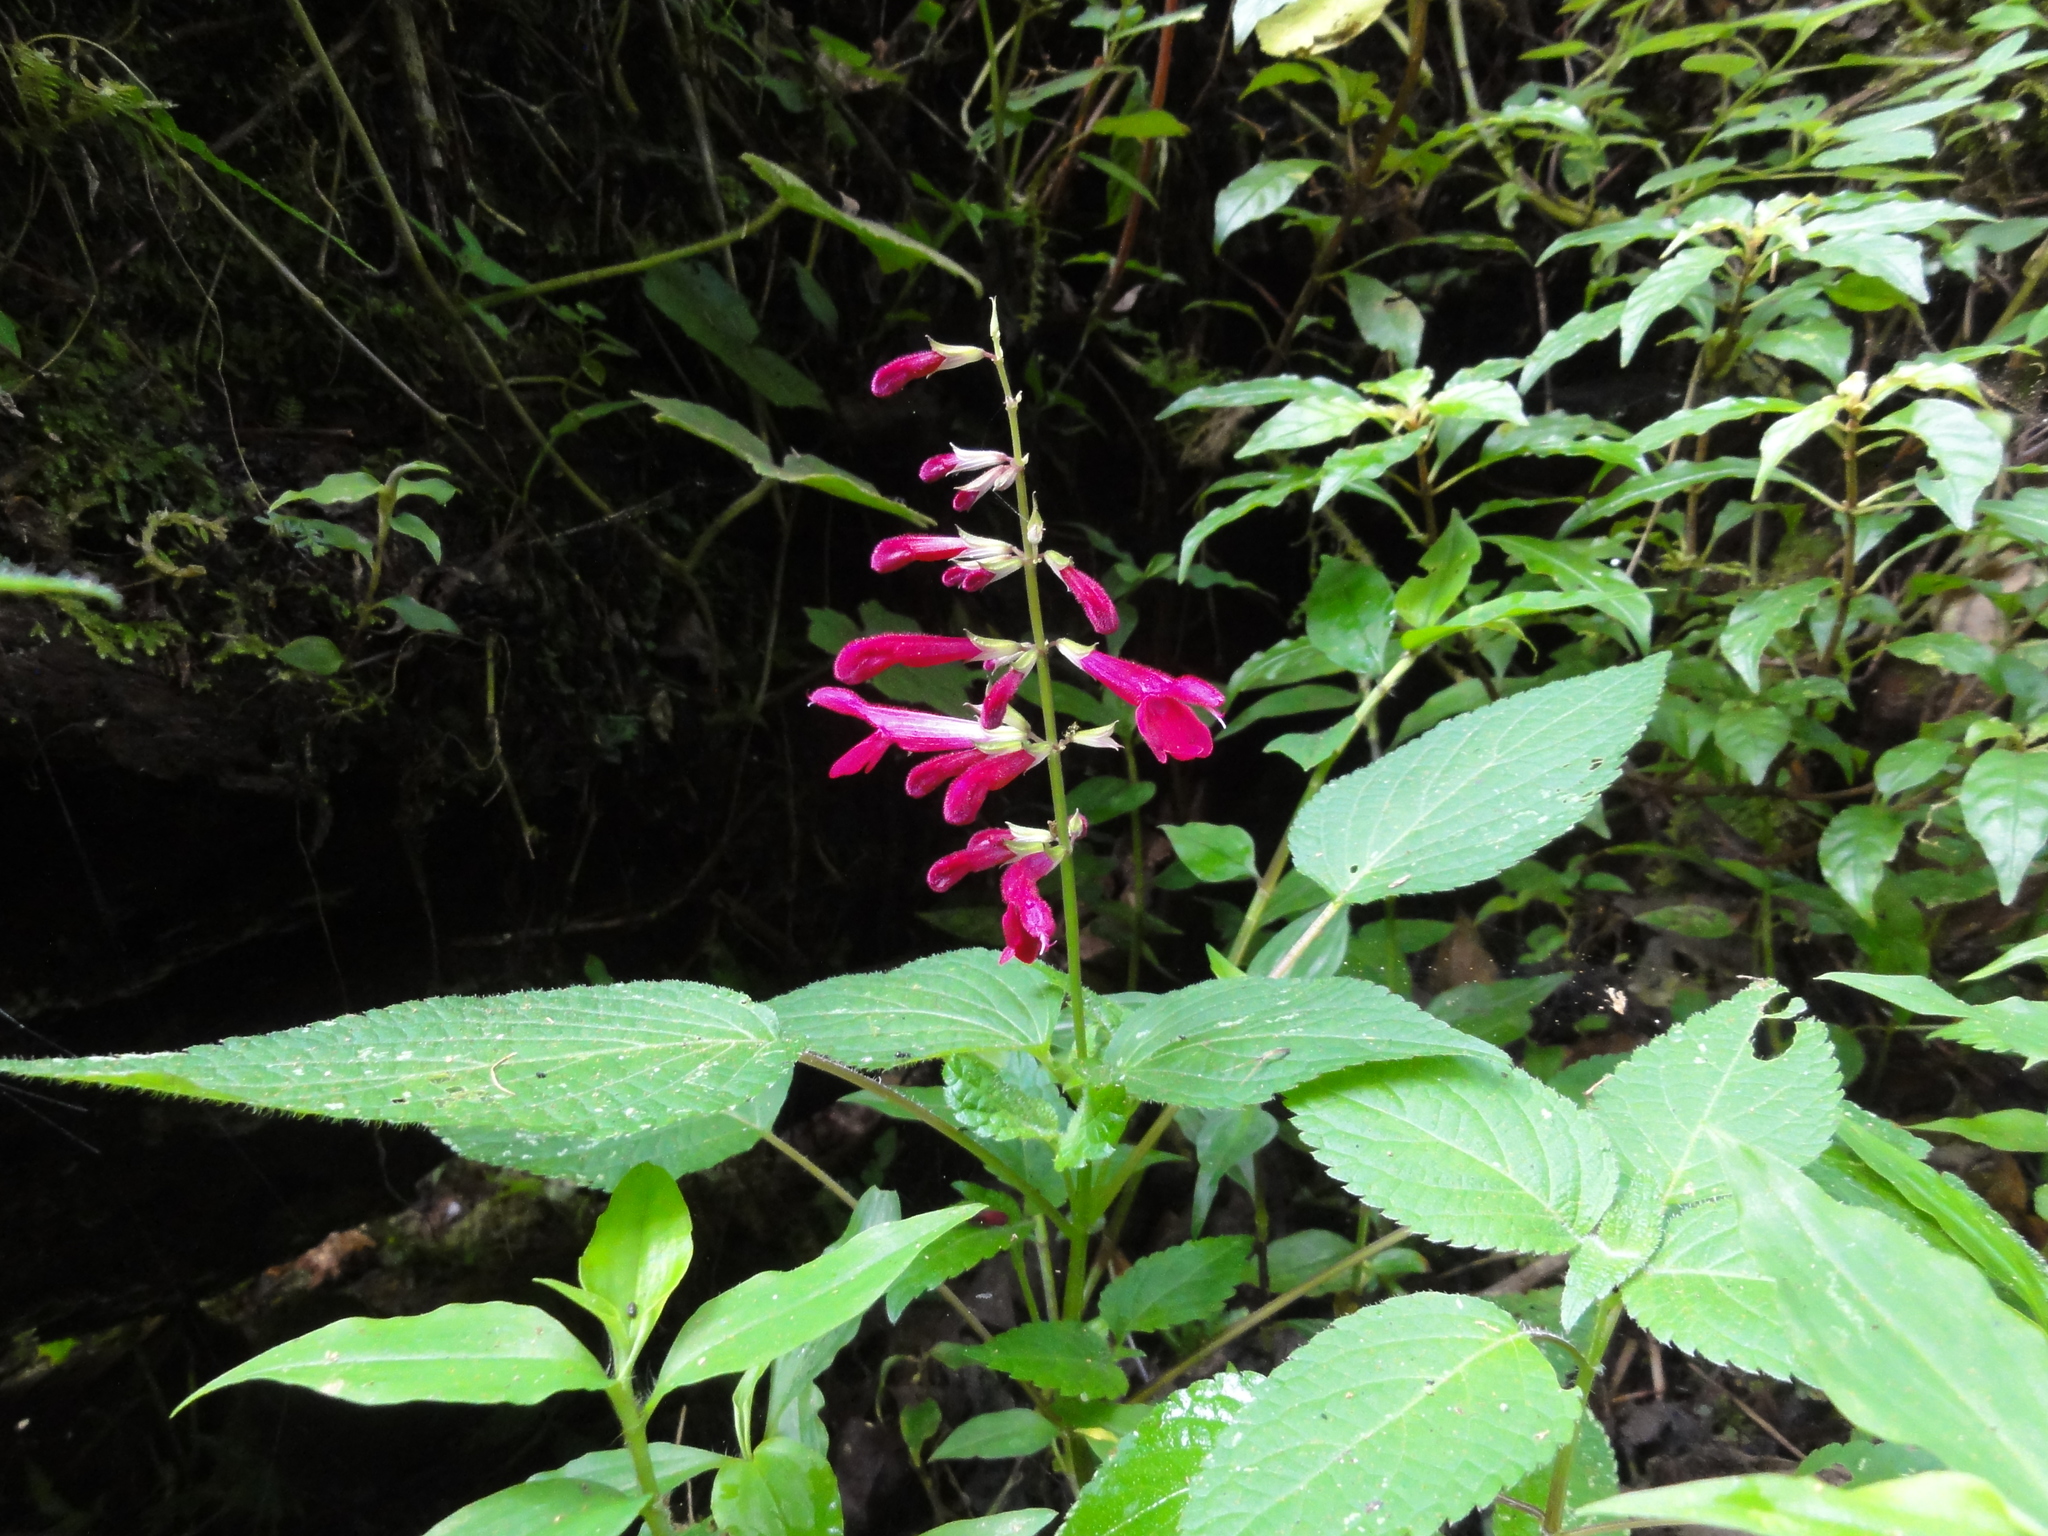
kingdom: Plantae
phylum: Tracheophyta
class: Magnoliopsida
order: Lamiales
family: Lamiaceae
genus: Salvia
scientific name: Salvia carnea
